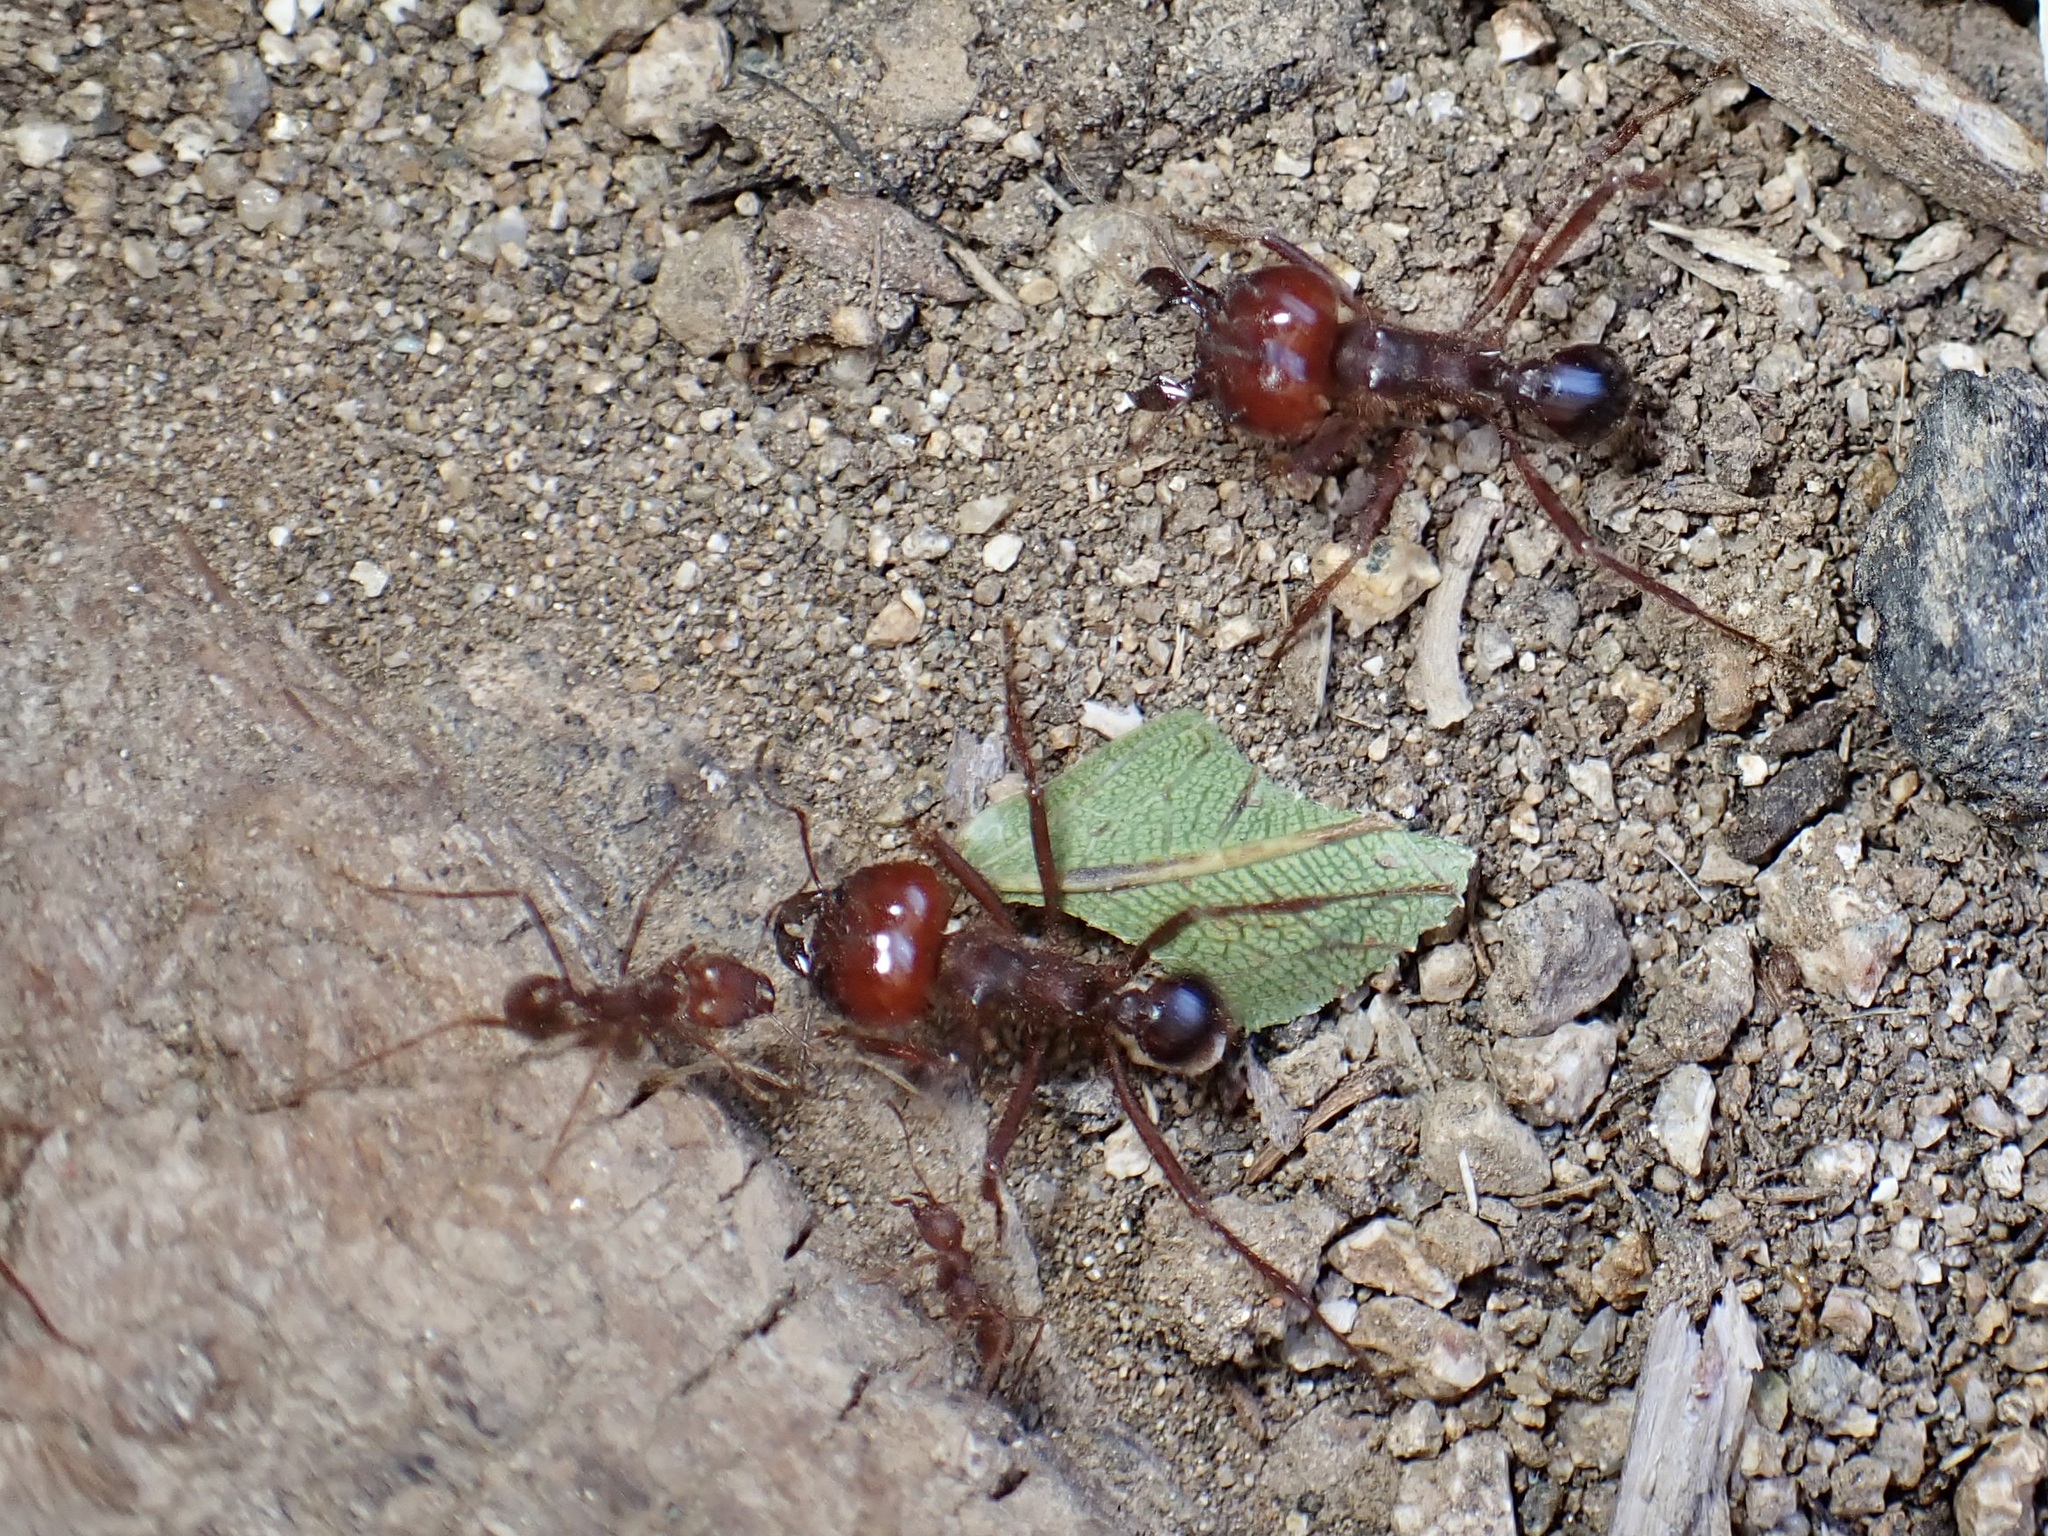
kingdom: Animalia
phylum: Arthropoda
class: Insecta
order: Hymenoptera
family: Formicidae
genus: Atta
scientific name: Atta mexicana
